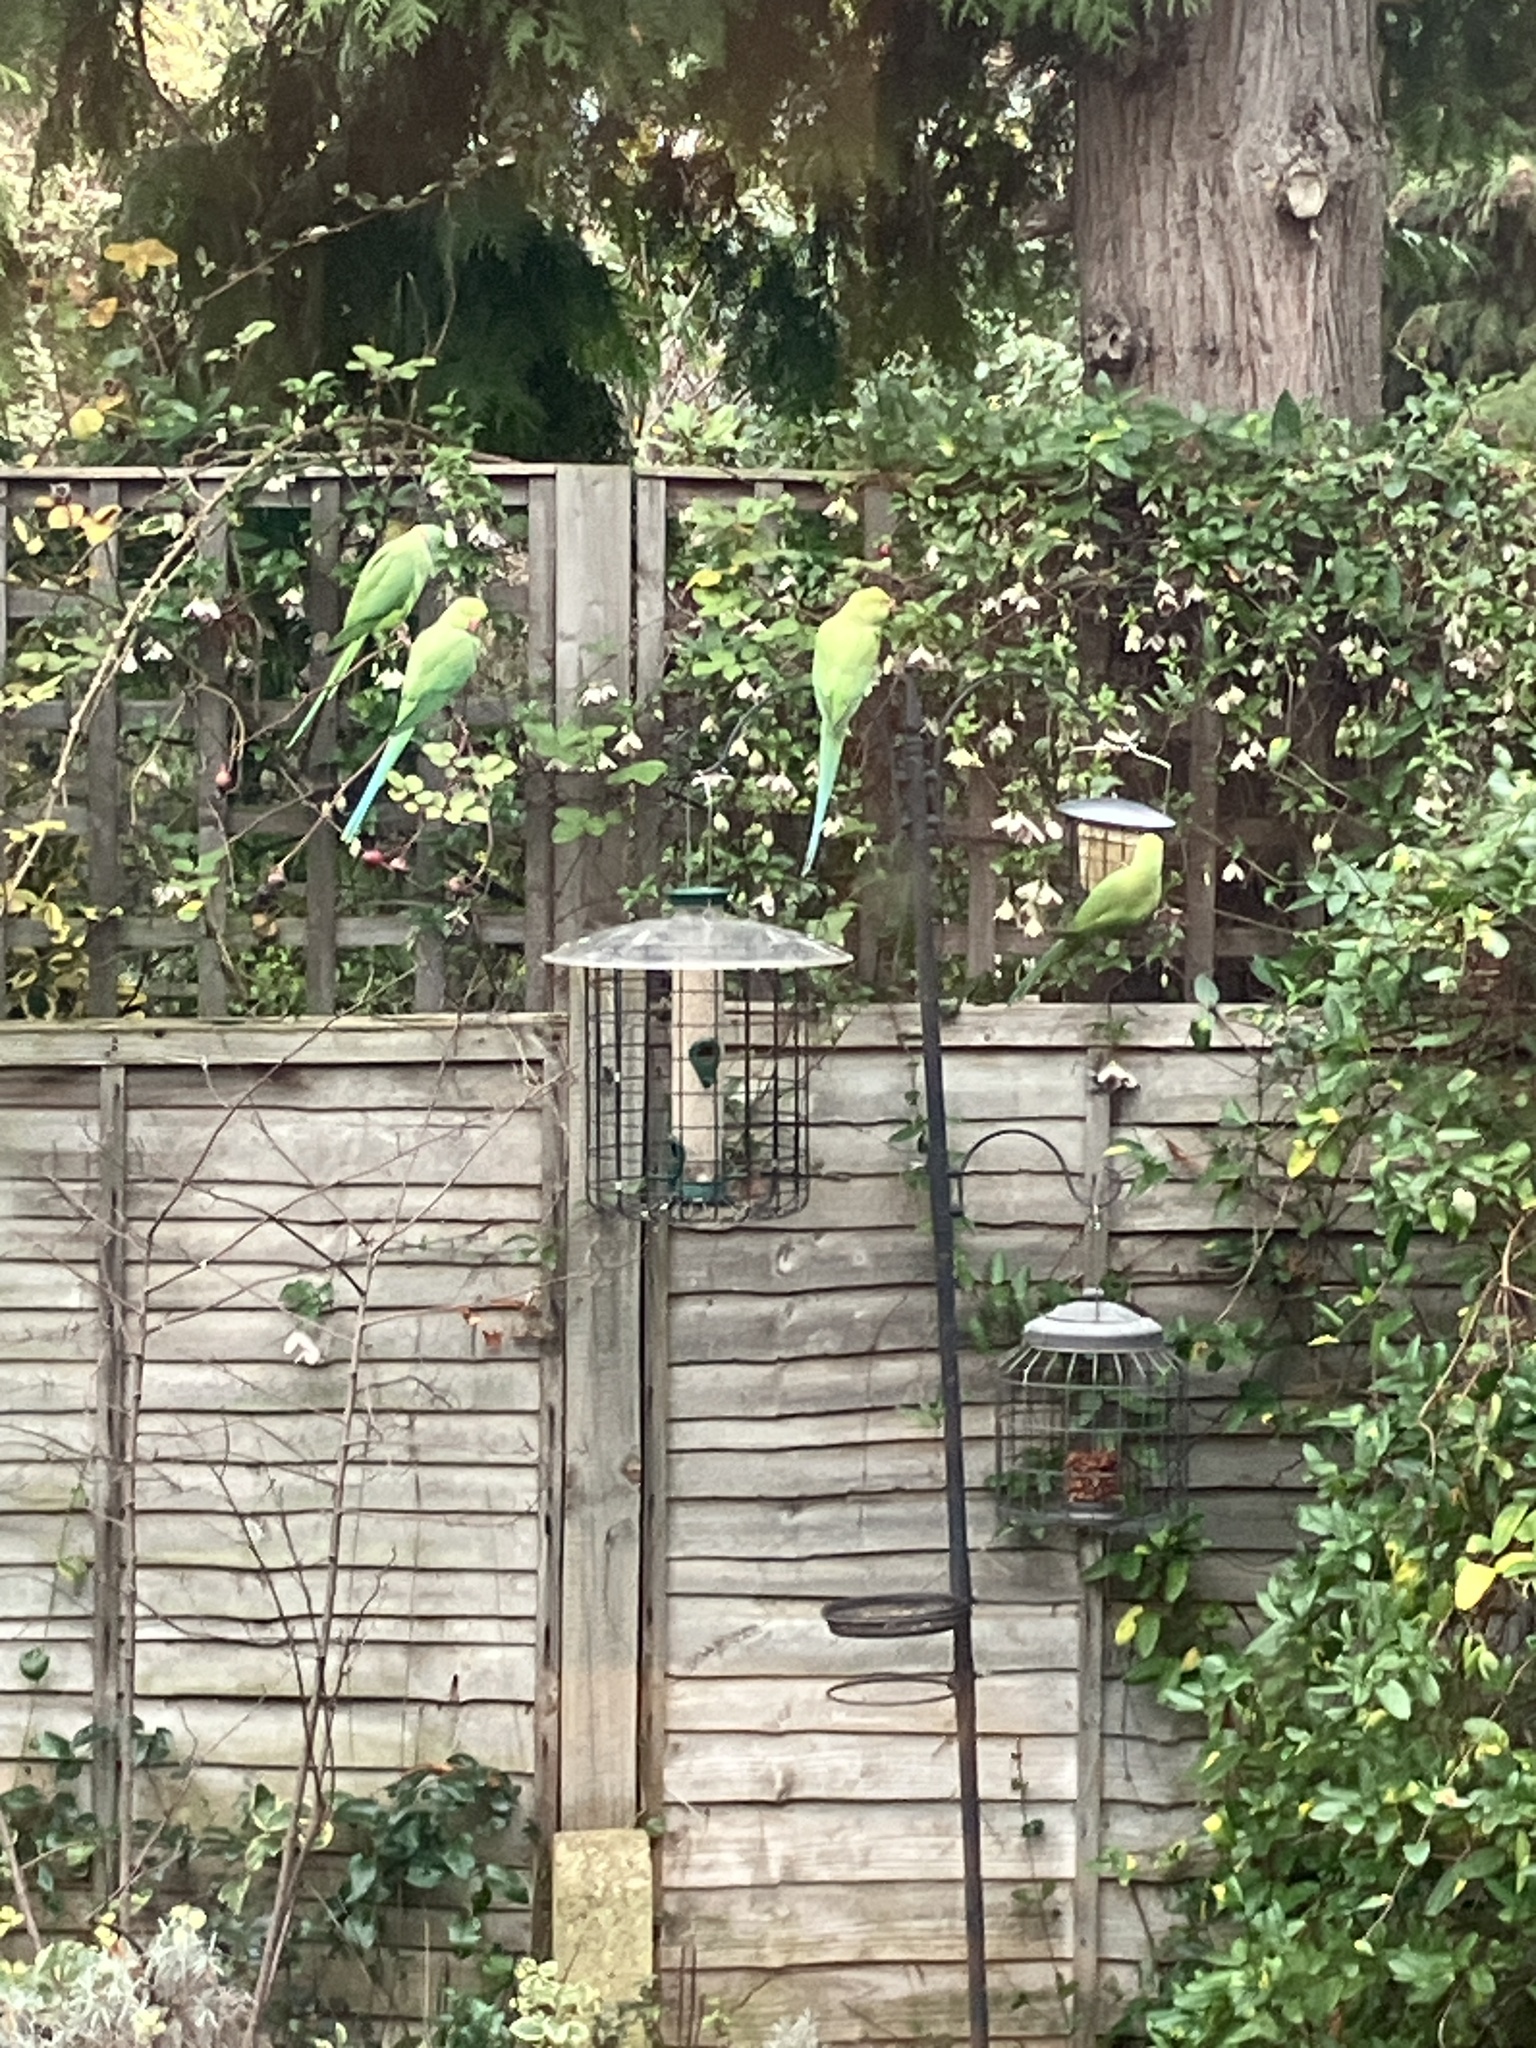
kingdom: Animalia
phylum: Chordata
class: Aves
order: Psittaciformes
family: Psittacidae
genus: Psittacula
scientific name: Psittacula krameri
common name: Rose-ringed parakeet
